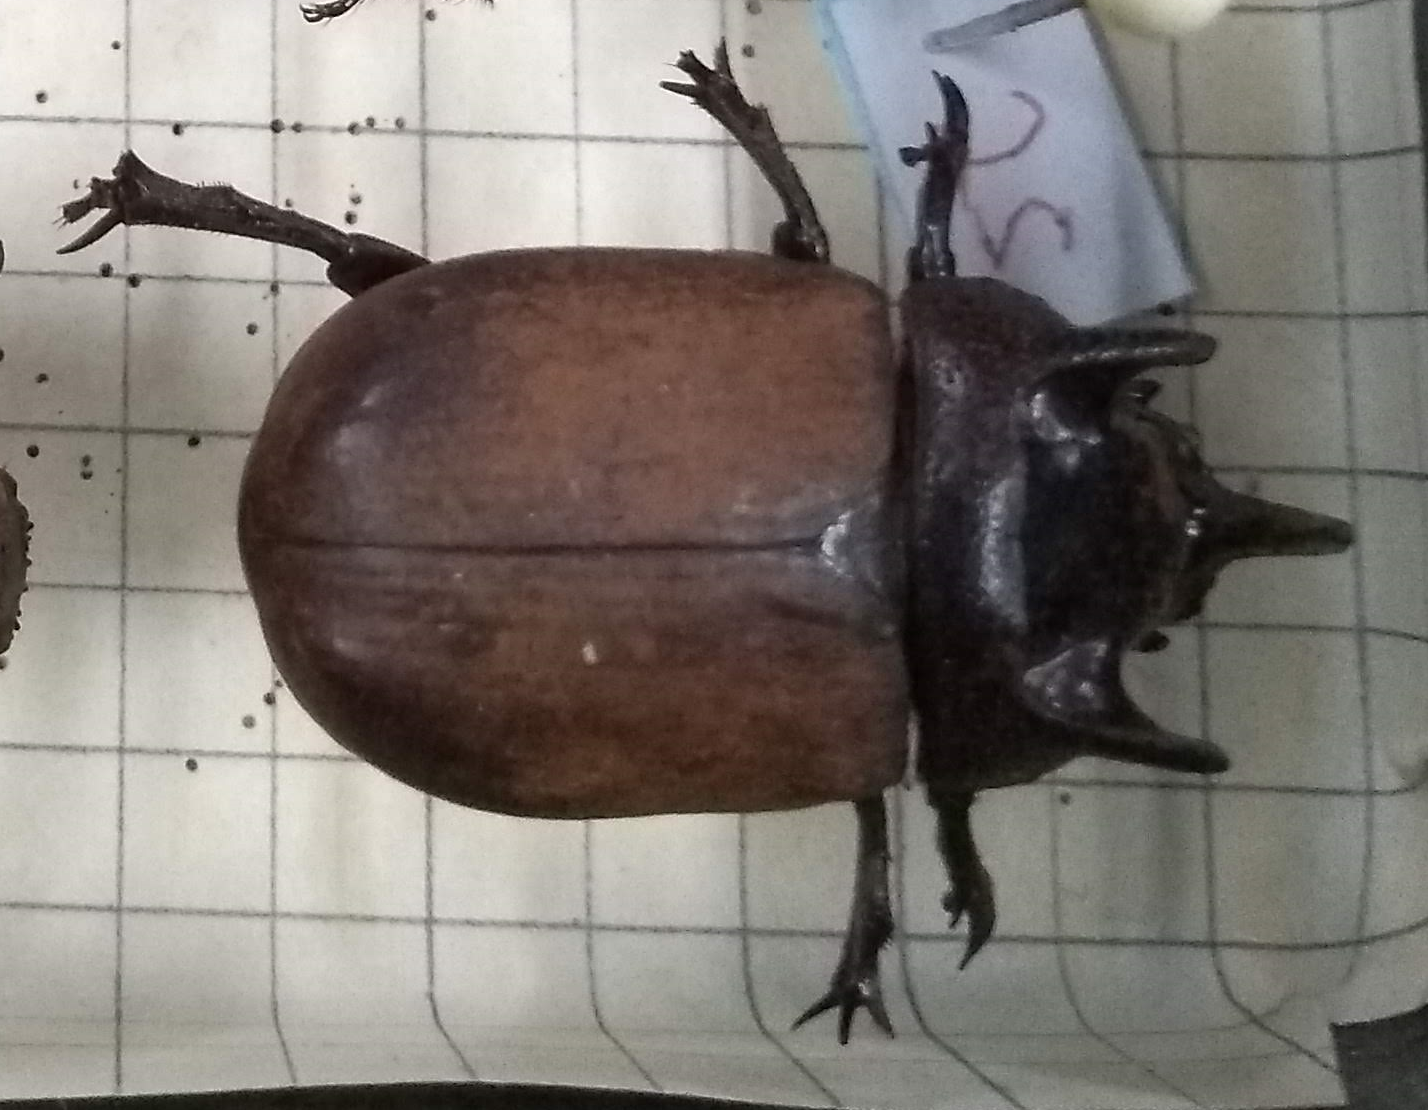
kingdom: Animalia
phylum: Arthropoda
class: Insecta
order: Coleoptera
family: Scarabaeidae
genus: Coelosis
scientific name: Coelosis bicornis
